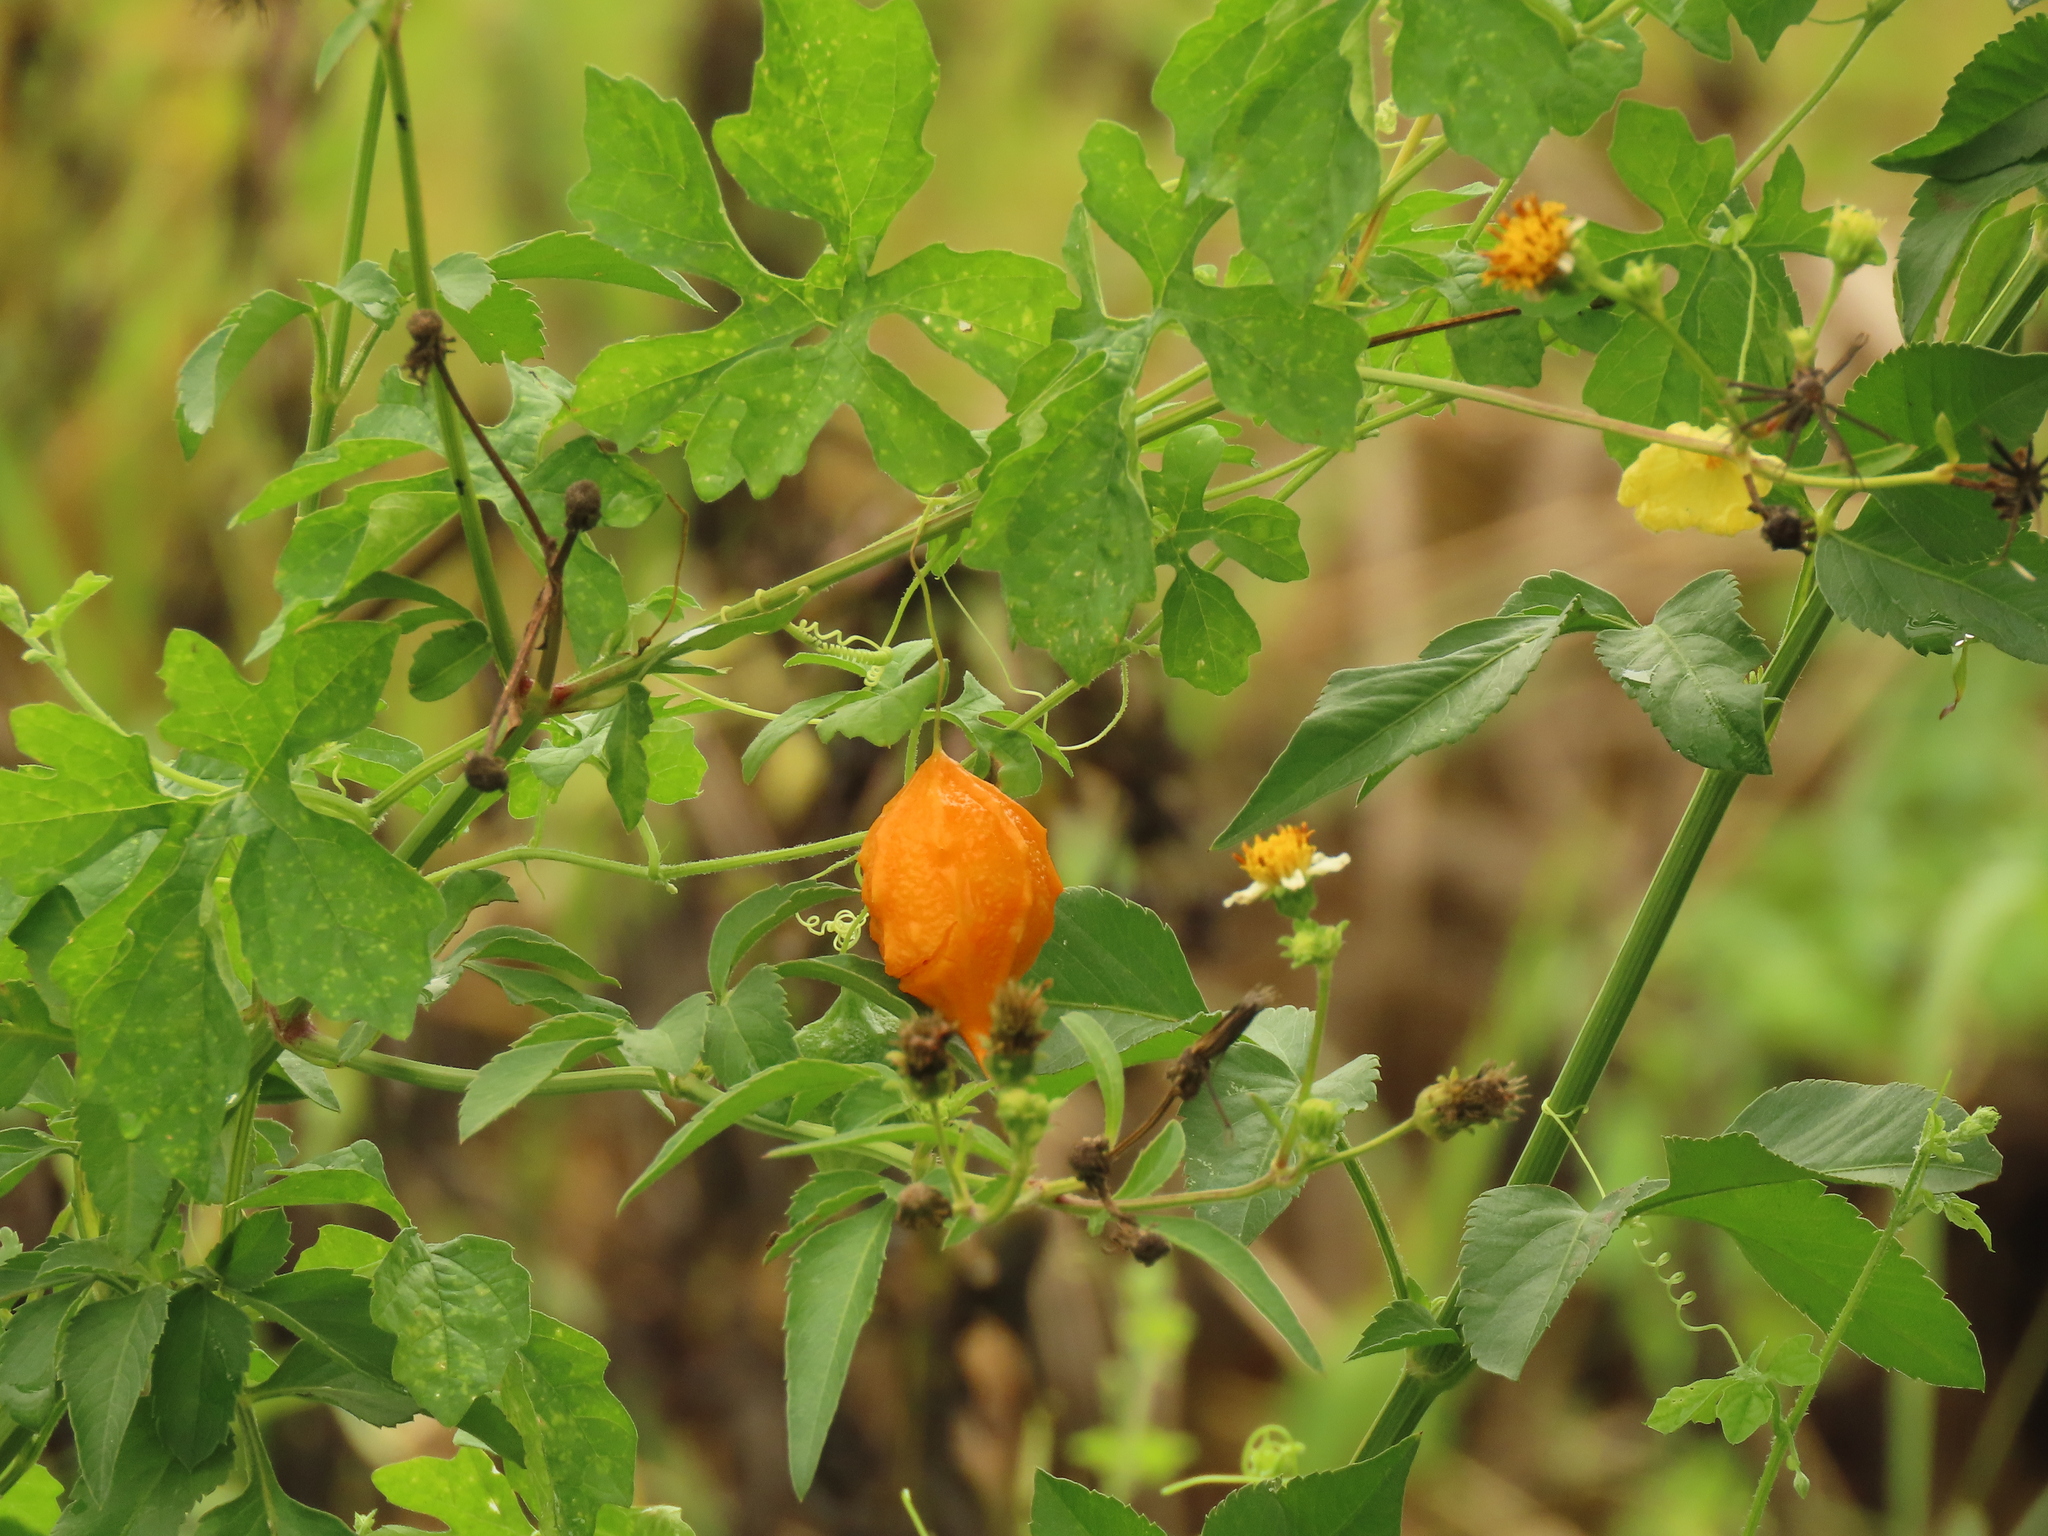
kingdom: Plantae
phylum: Tracheophyta
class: Magnoliopsida
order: Cucurbitales
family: Cucurbitaceae
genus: Momordica
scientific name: Momordica charantia
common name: Balsampear
